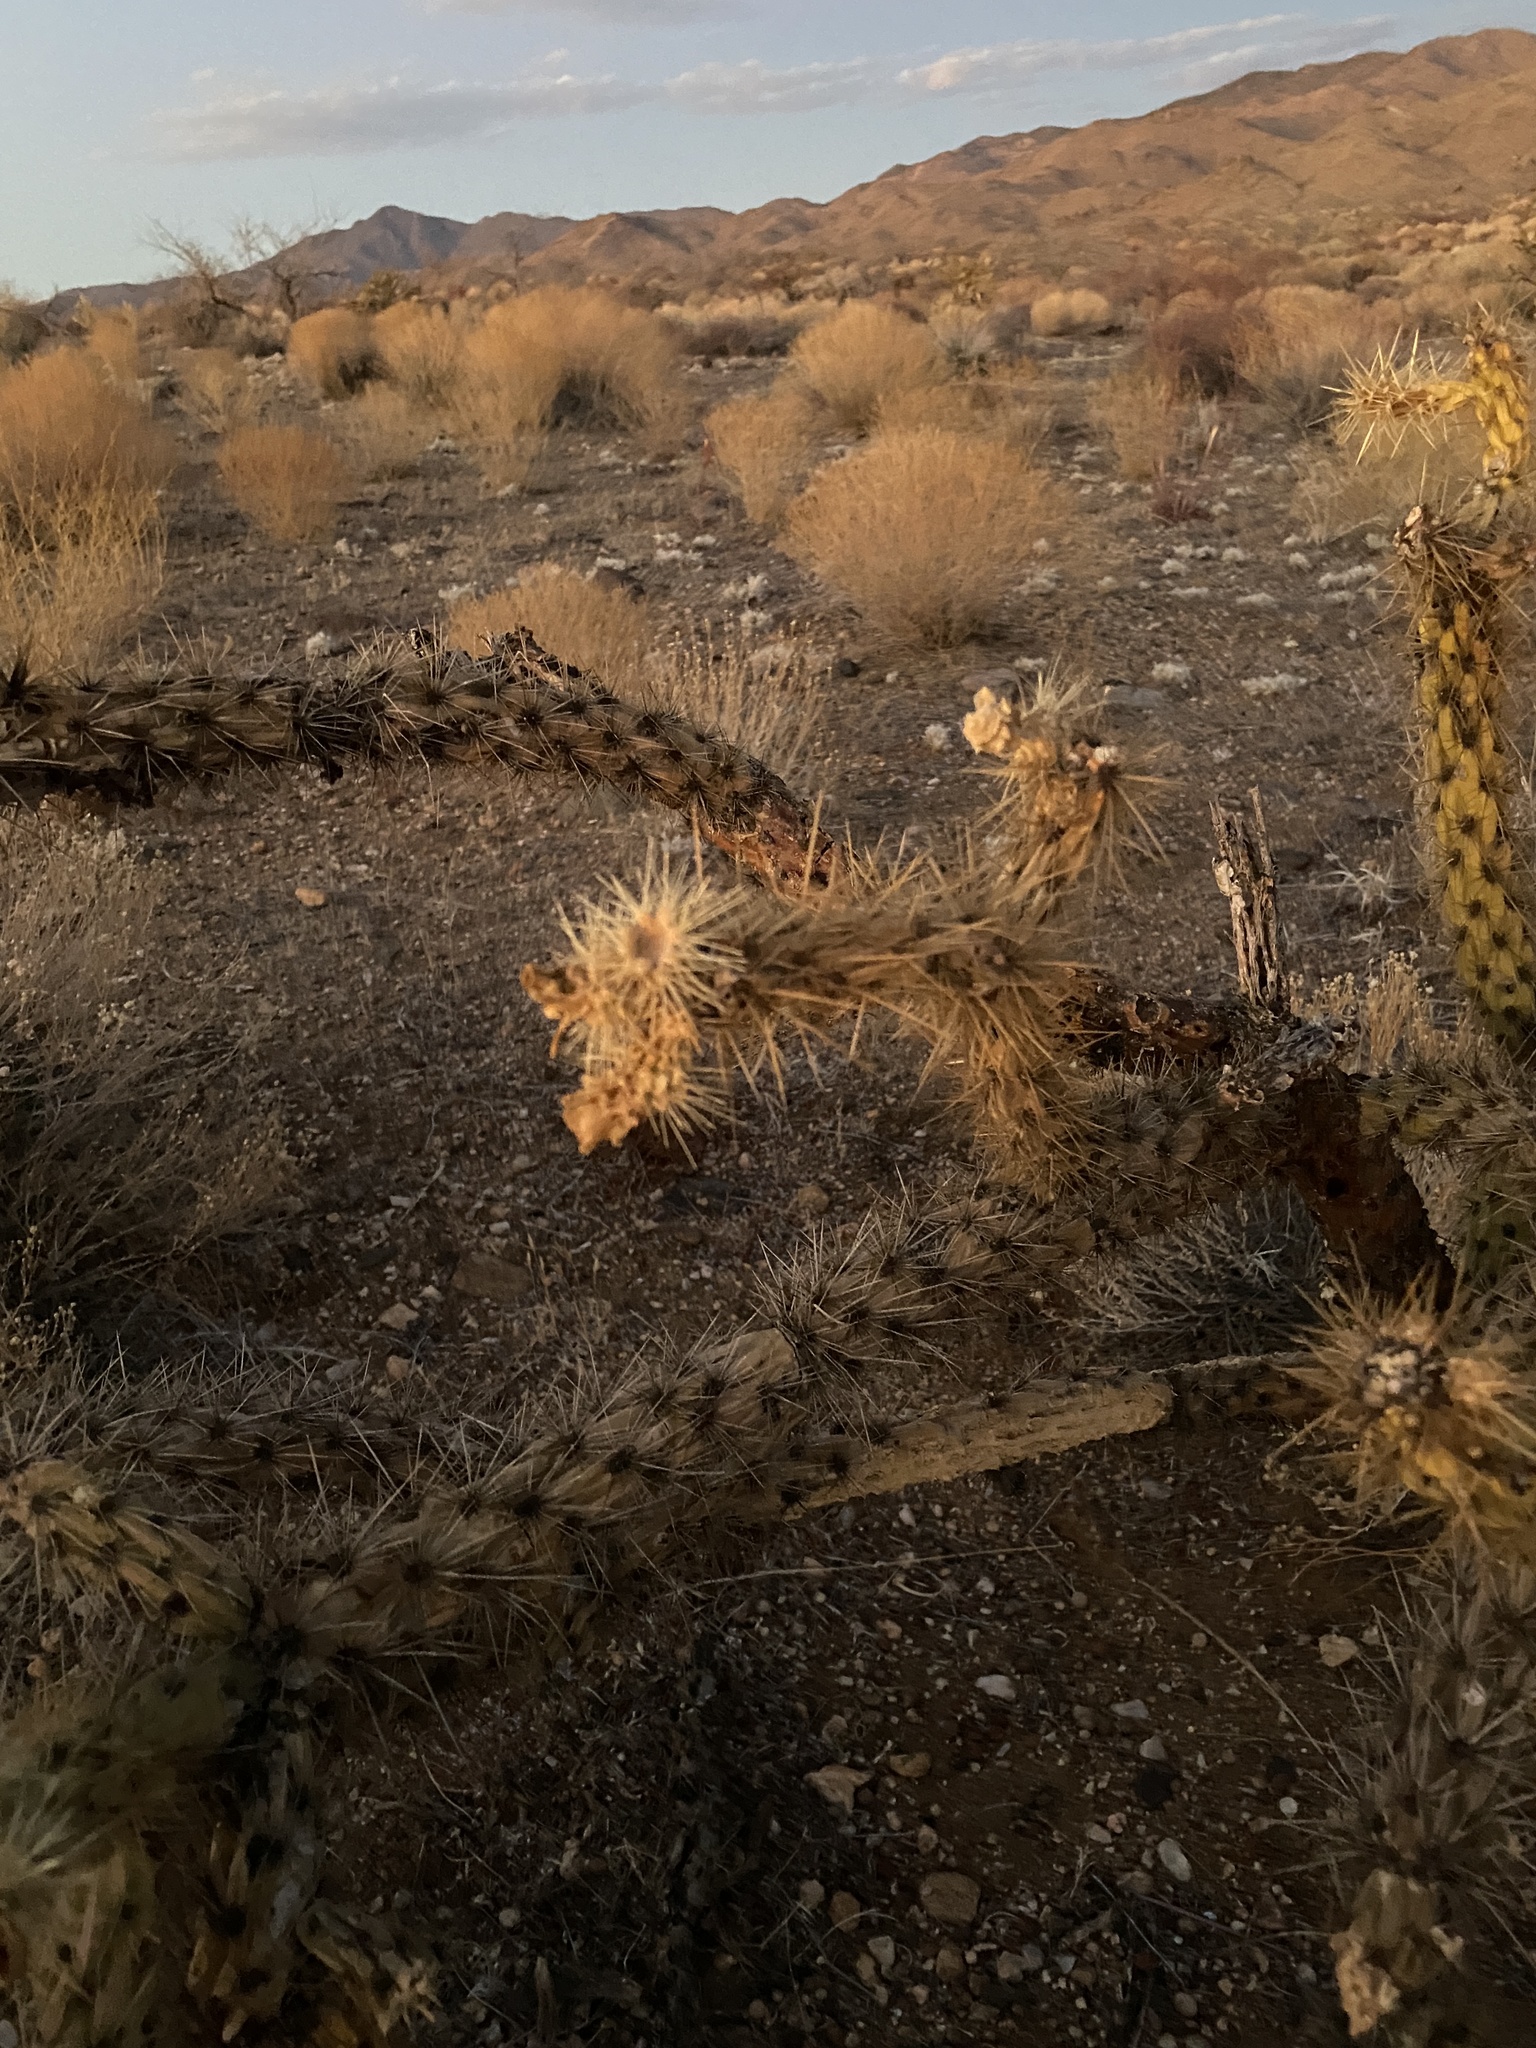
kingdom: Plantae
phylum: Tracheophyta
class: Magnoliopsida
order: Caryophyllales
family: Cactaceae
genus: Cylindropuntia
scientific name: Cylindropuntia acanthocarpa
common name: Buckhorn cholla
